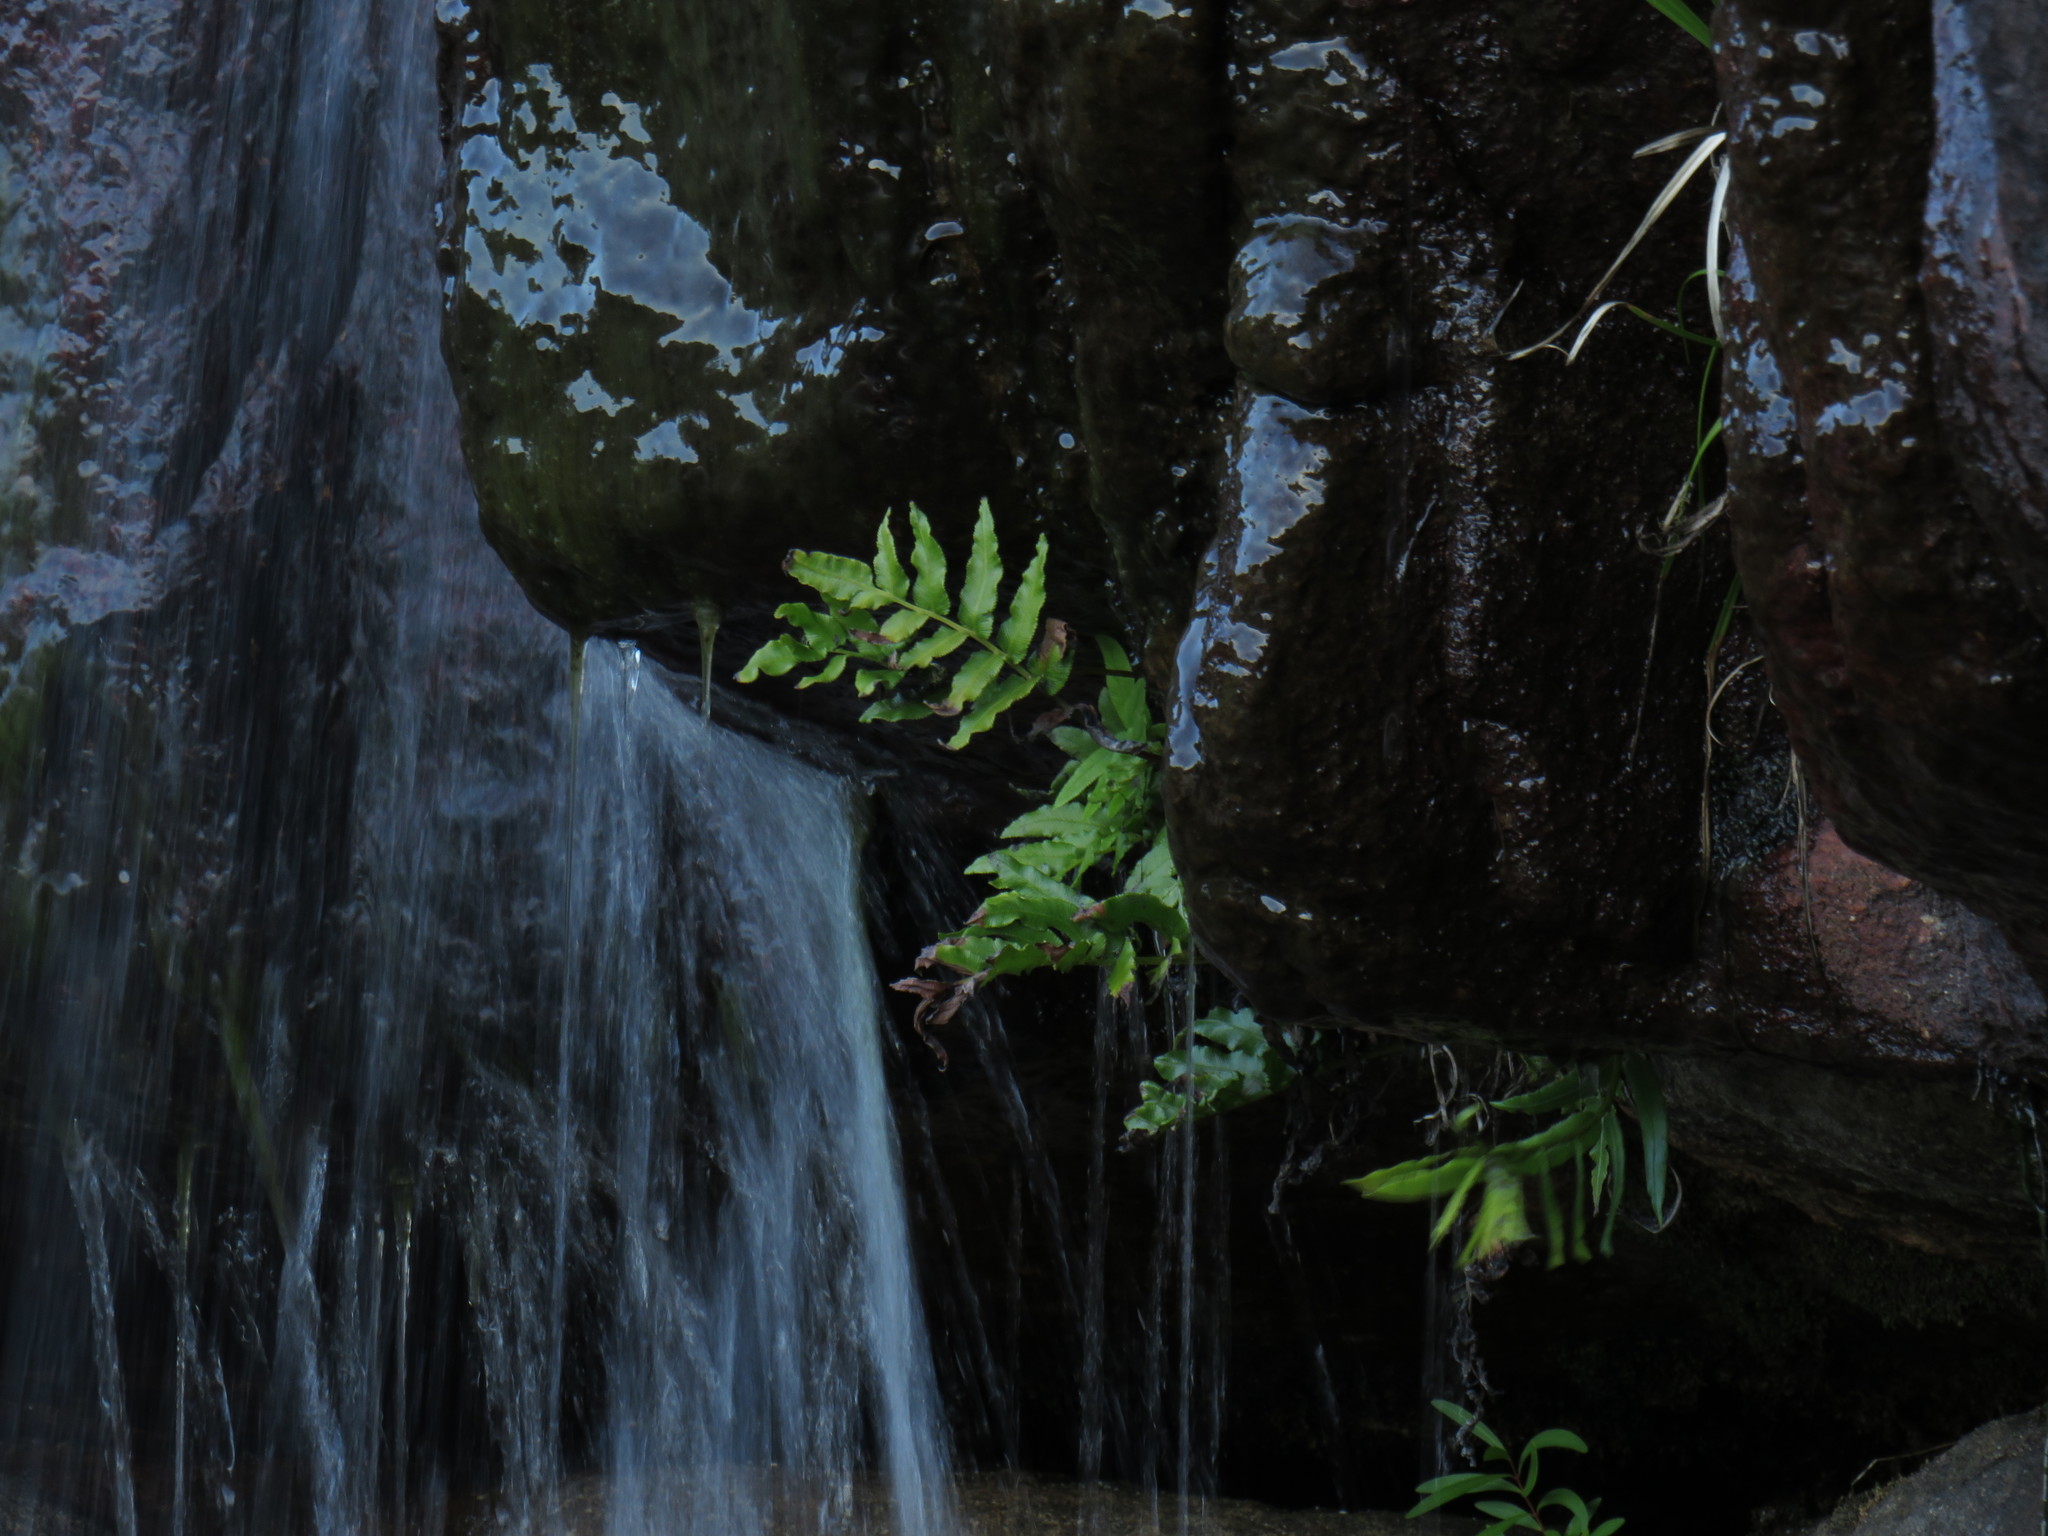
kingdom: Plantae
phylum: Tracheophyta
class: Polypodiopsida
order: Polypodiales
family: Blechnaceae
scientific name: Blechnaceae
